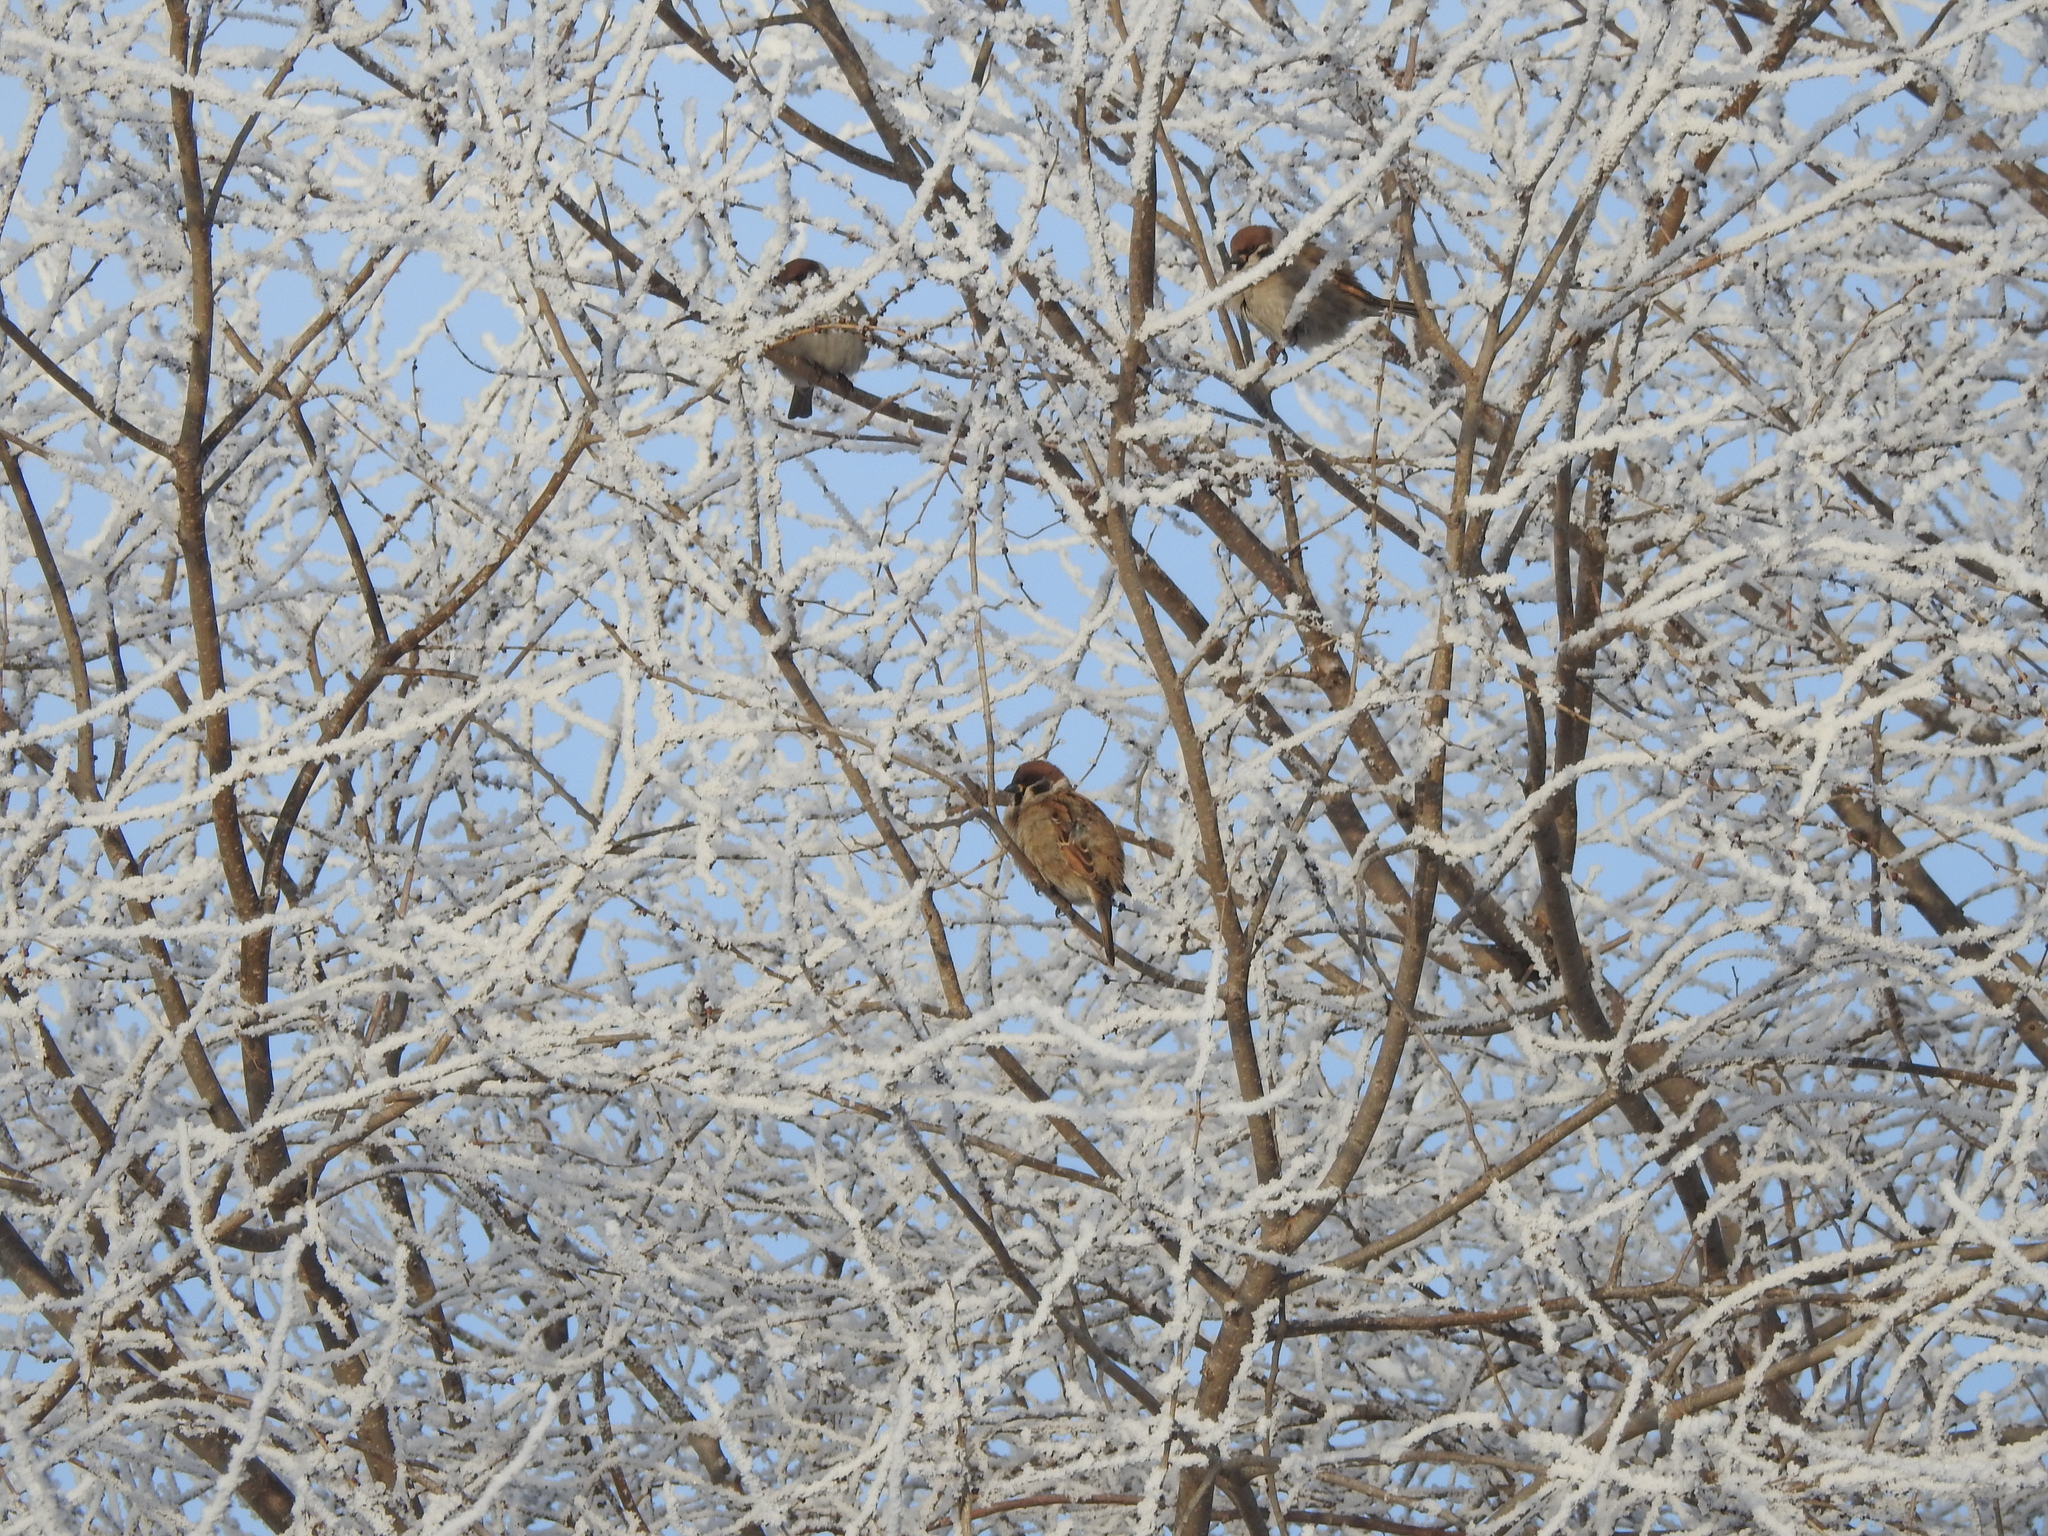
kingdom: Animalia
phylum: Chordata
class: Aves
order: Passeriformes
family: Passeridae
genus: Passer
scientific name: Passer montanus
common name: Eurasian tree sparrow
